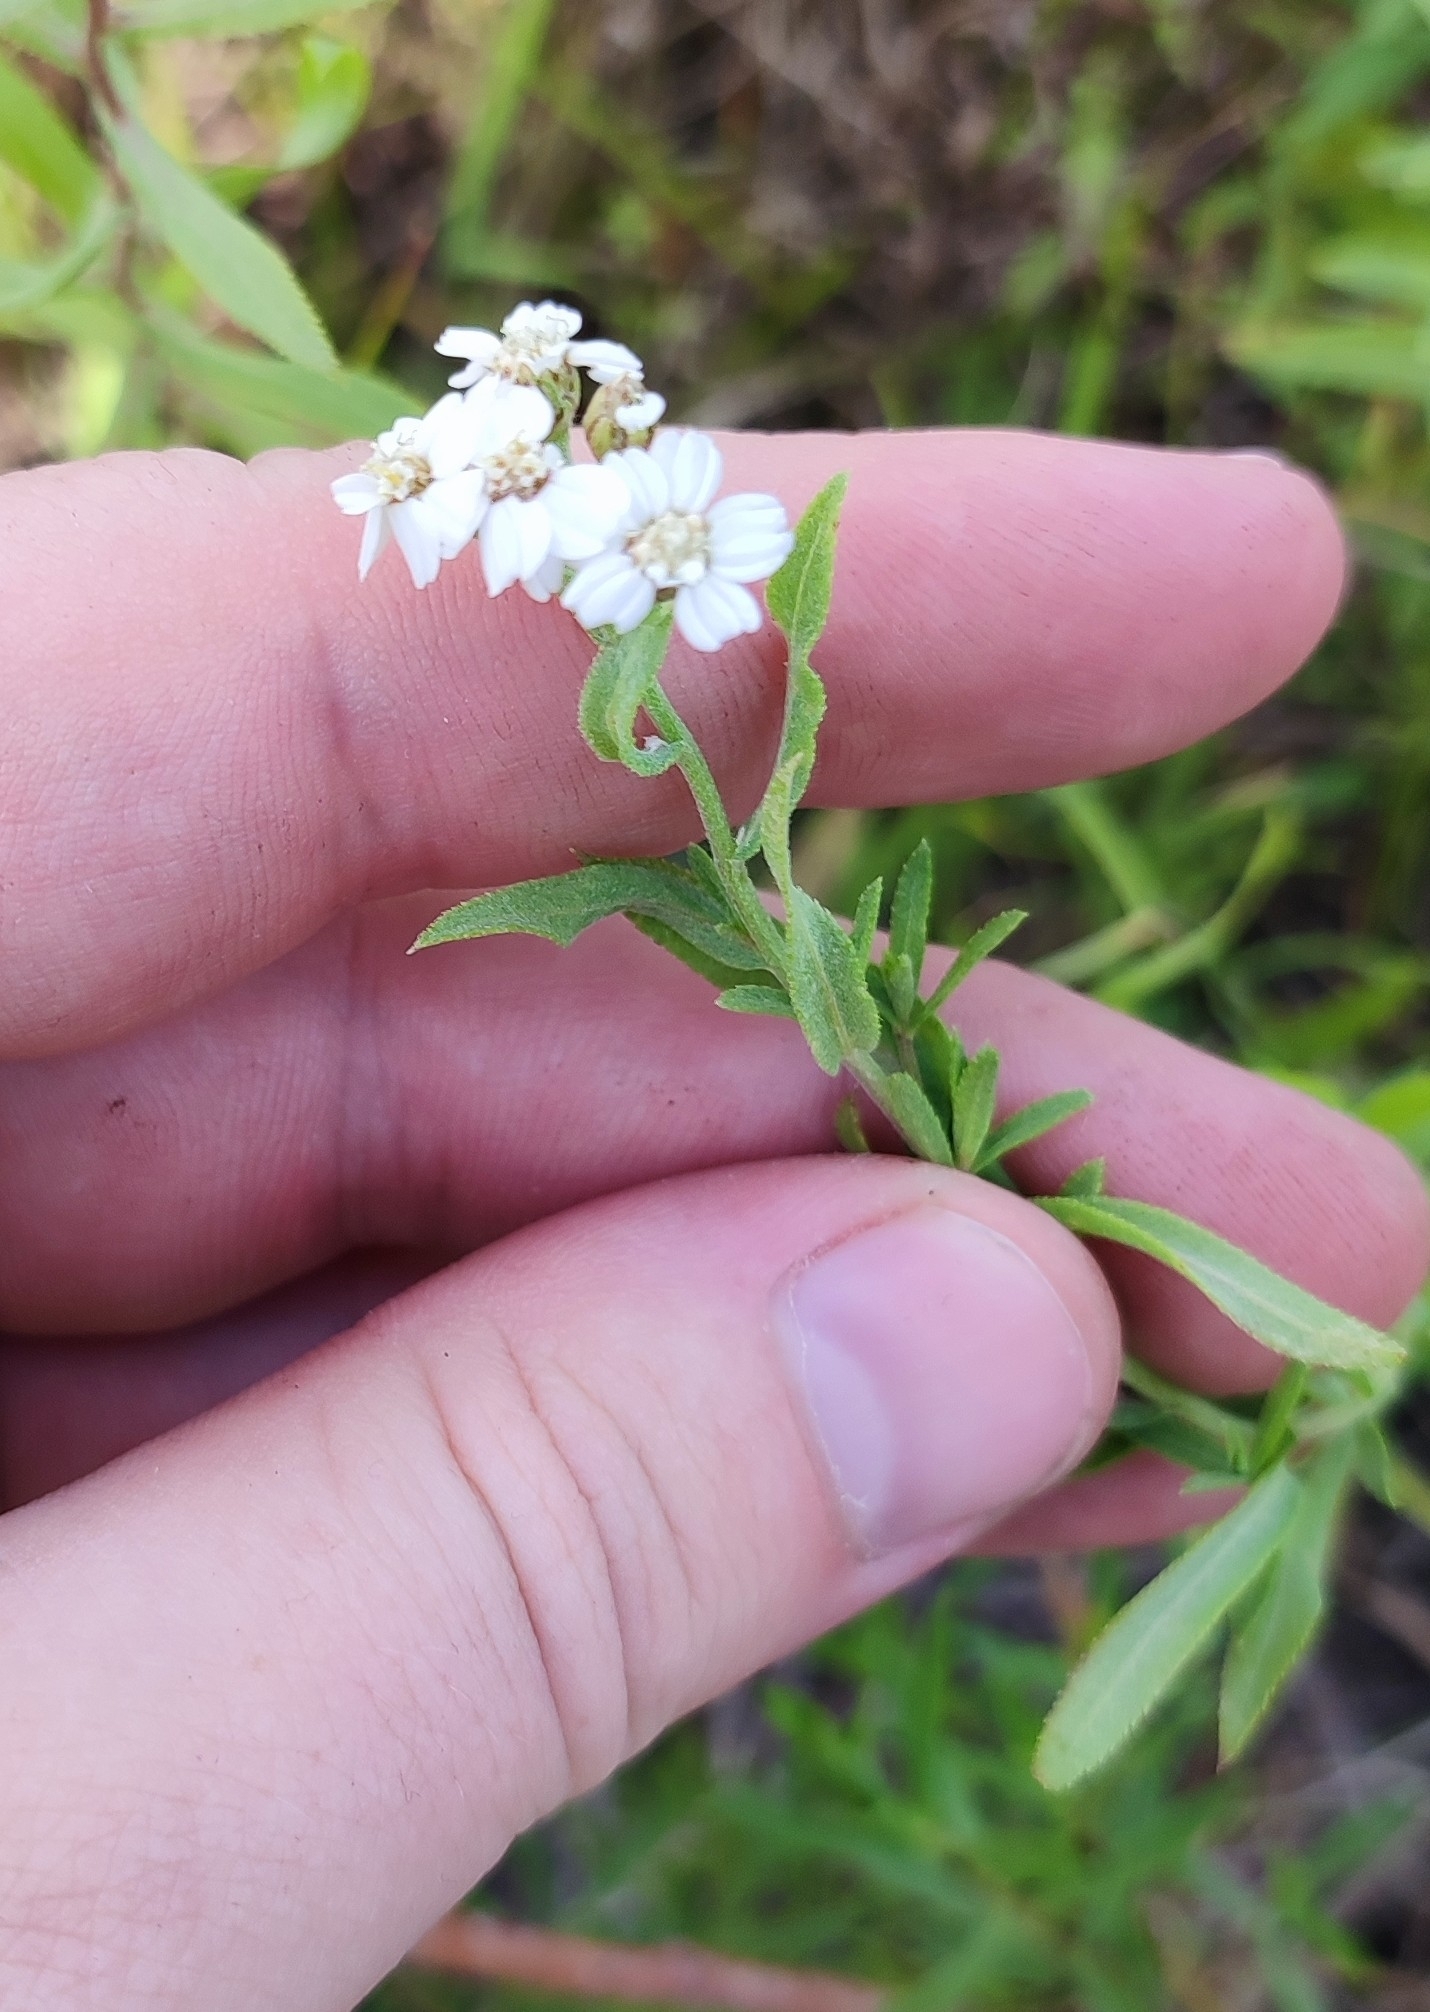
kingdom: Plantae
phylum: Tracheophyta
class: Magnoliopsida
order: Asterales
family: Asteraceae
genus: Achillea
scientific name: Achillea salicifolia
